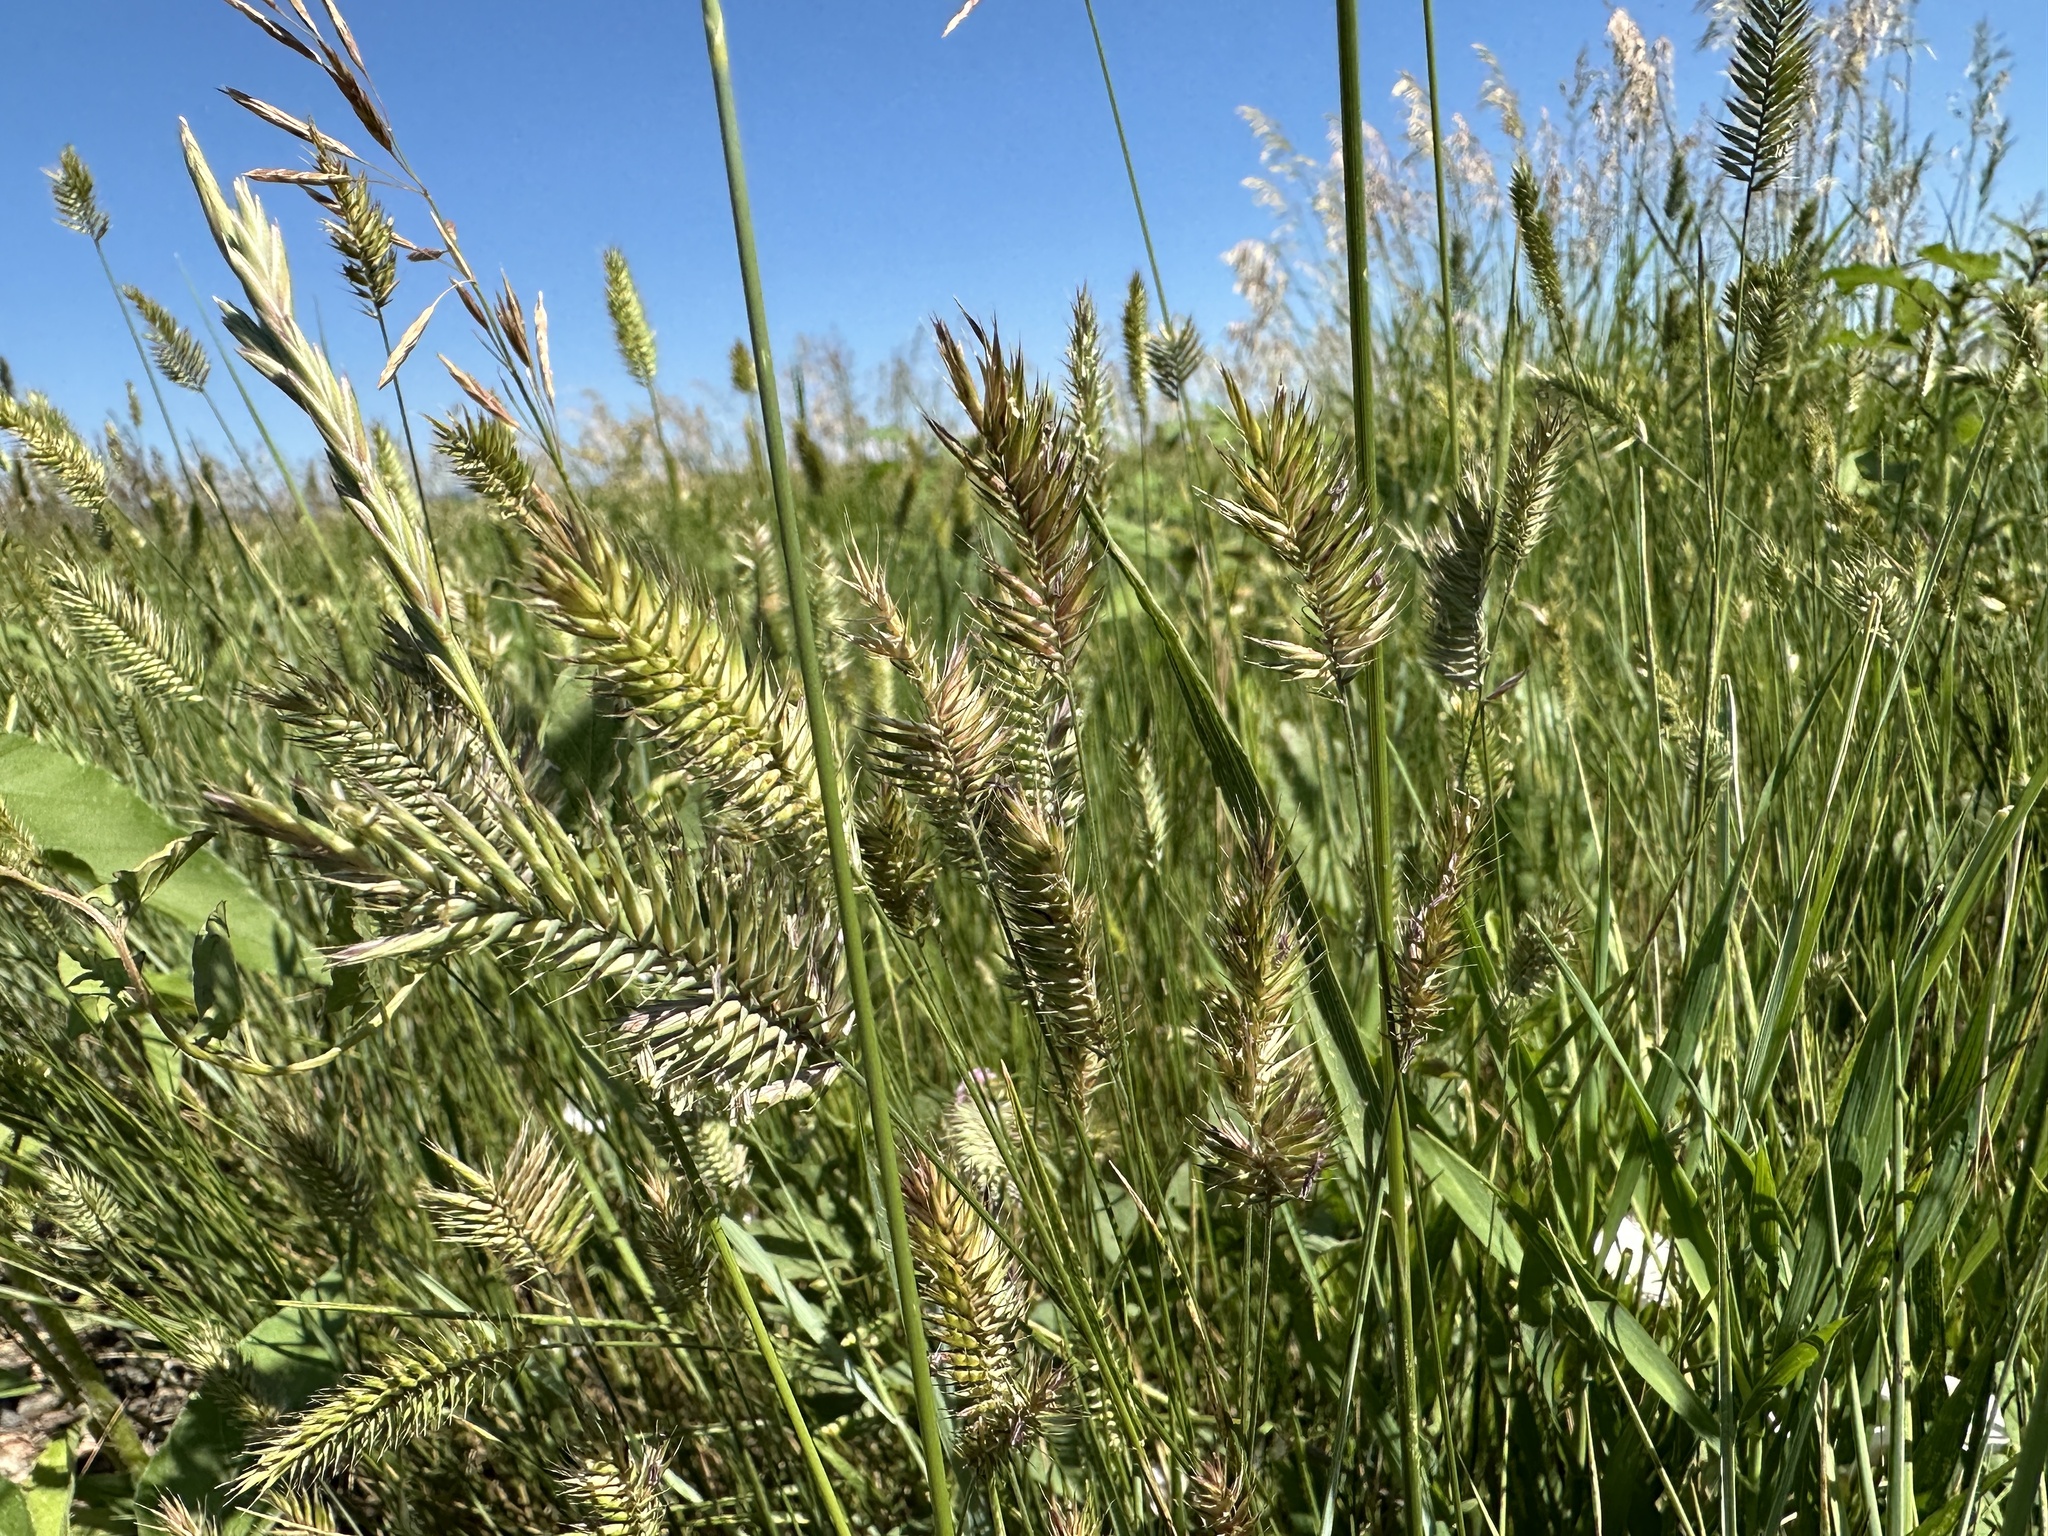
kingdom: Plantae
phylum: Tracheophyta
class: Liliopsida
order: Poales
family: Poaceae
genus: Agropyron
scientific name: Agropyron cristatum
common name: Crested wheatgrass
